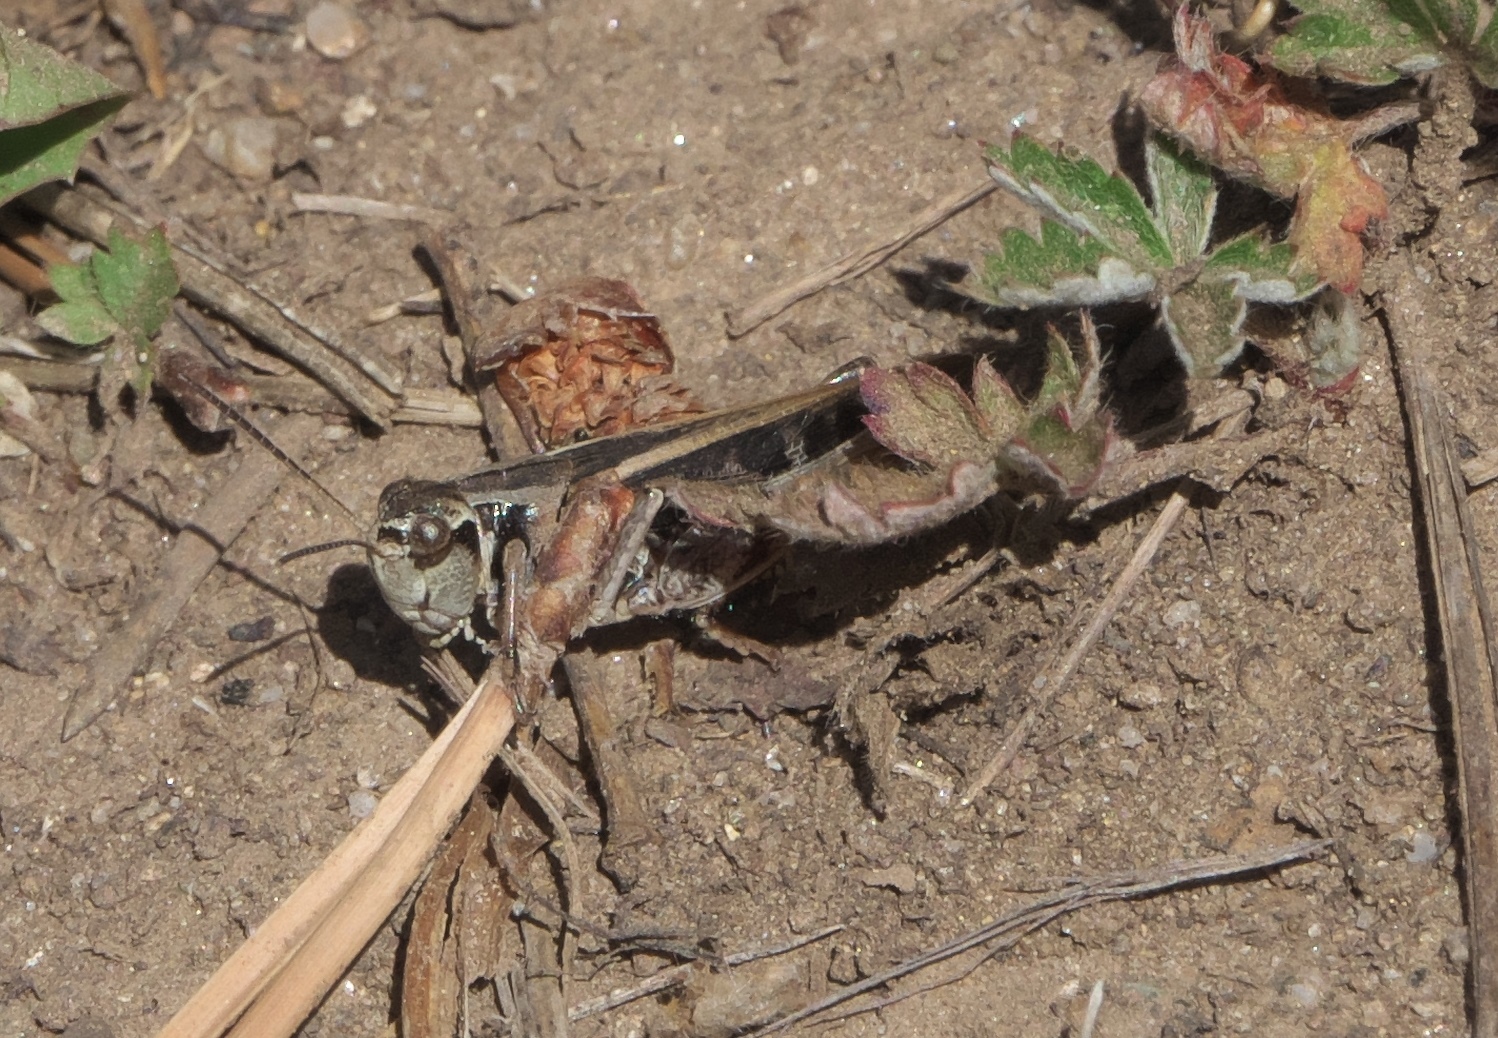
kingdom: Animalia
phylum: Arthropoda
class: Insecta
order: Orthoptera
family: Acrididae
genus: Camnula
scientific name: Camnula pellucida
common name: Clear-winged grasshopper
